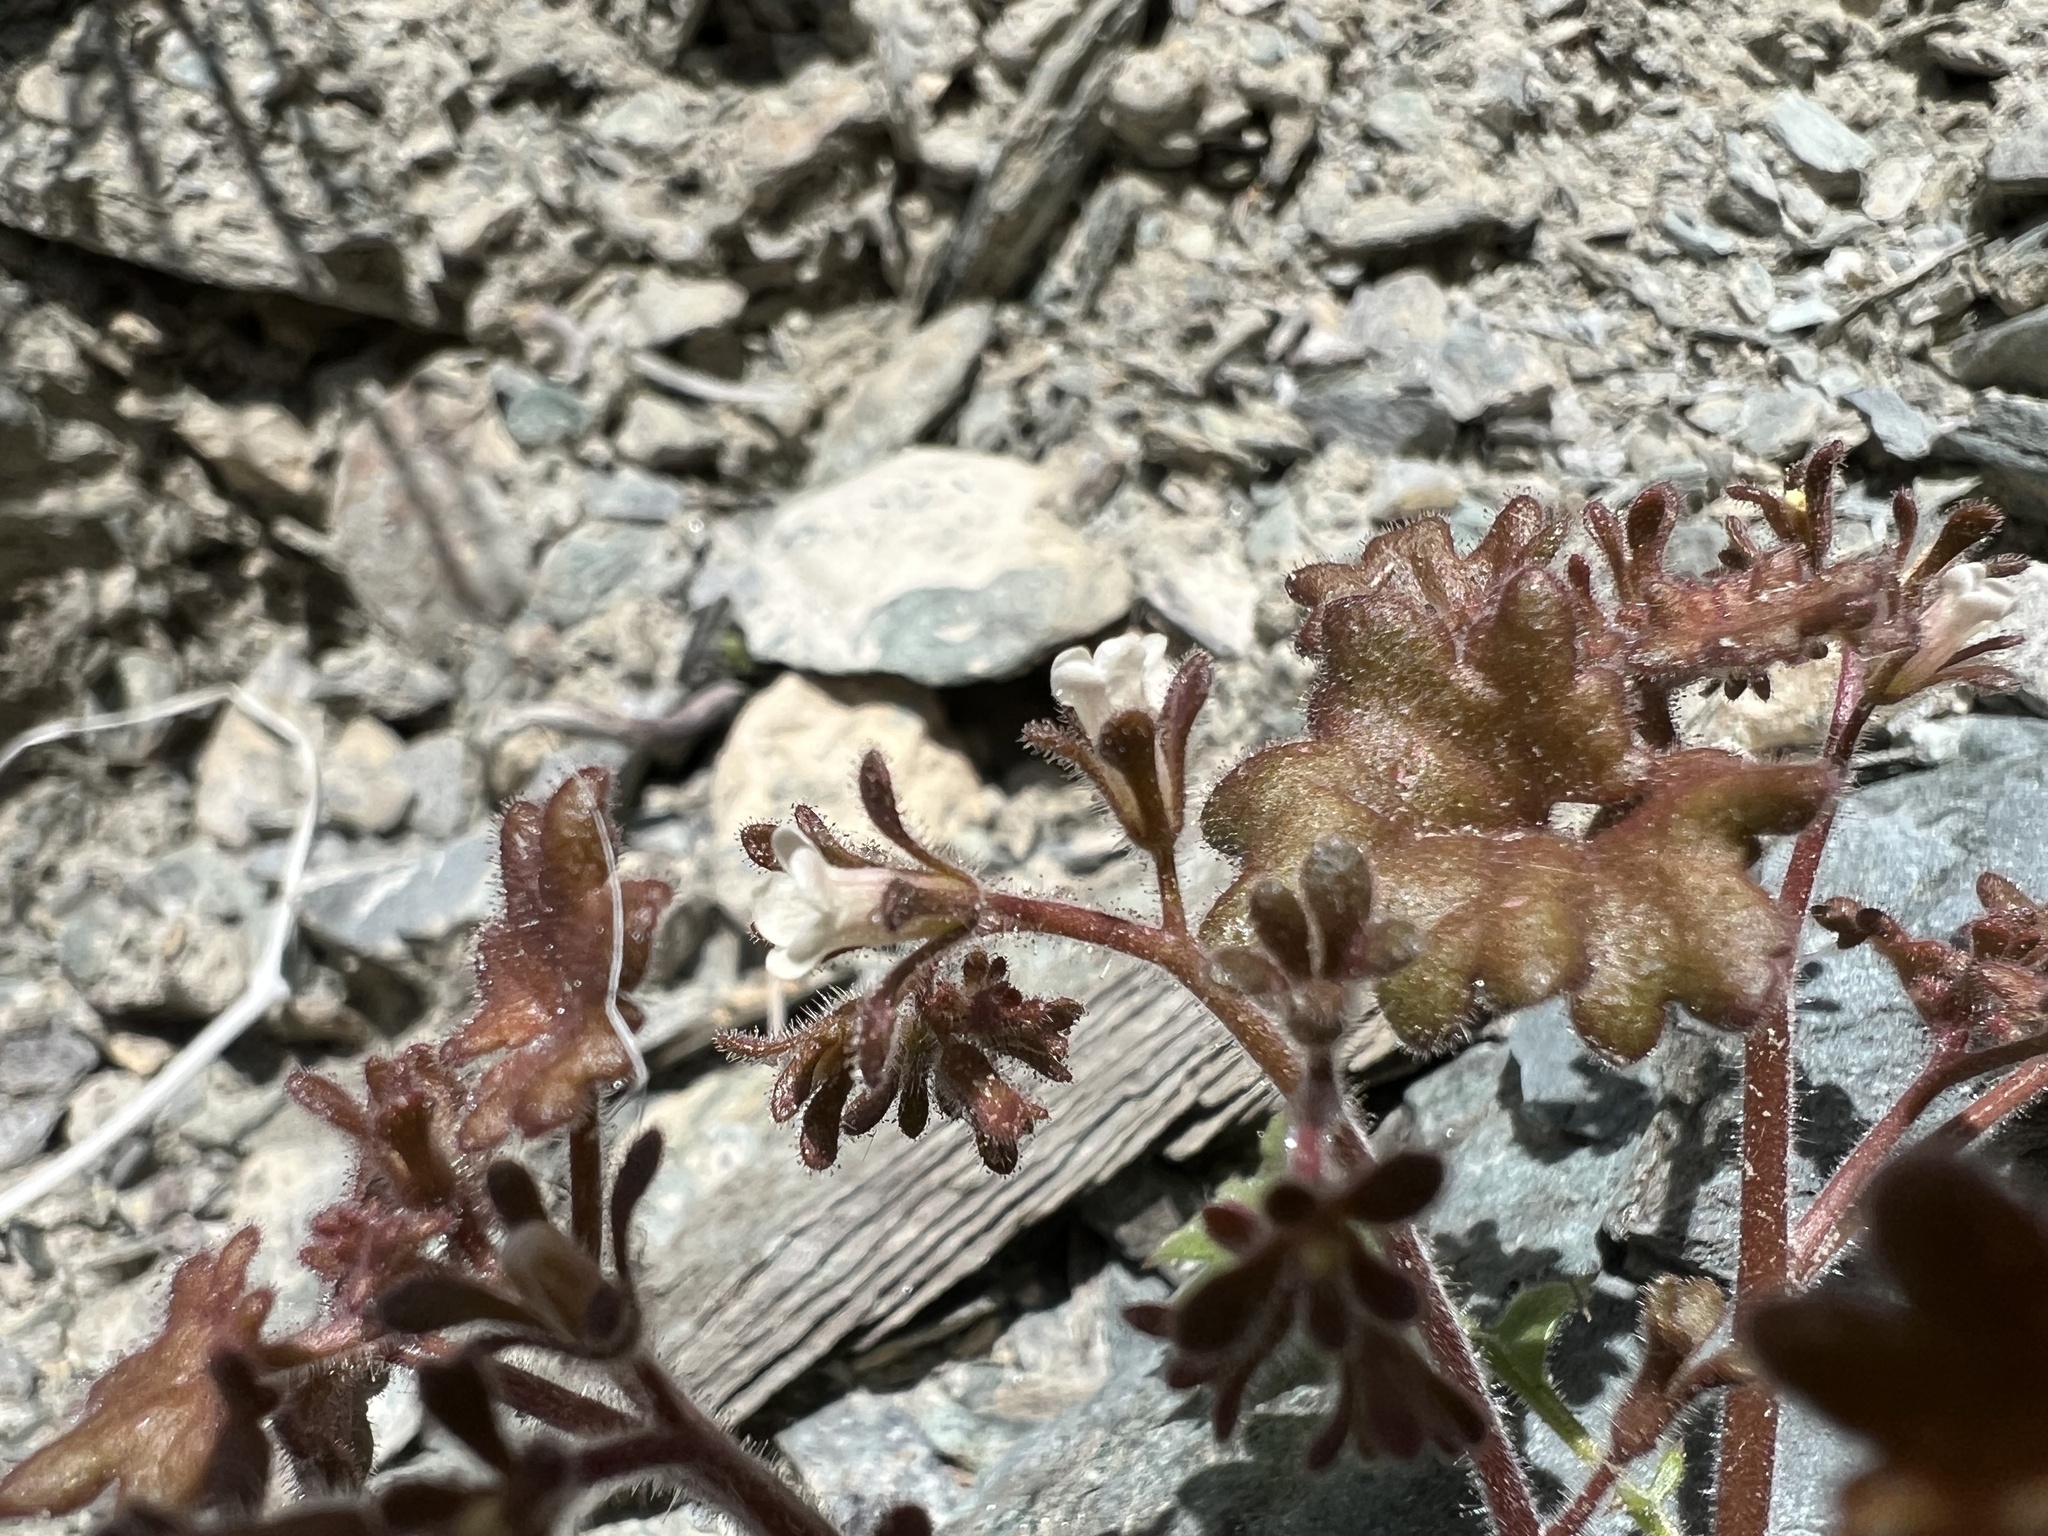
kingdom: Plantae
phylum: Tracheophyta
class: Magnoliopsida
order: Boraginales
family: Hydrophyllaceae
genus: Phacelia
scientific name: Phacelia rotundifolia
